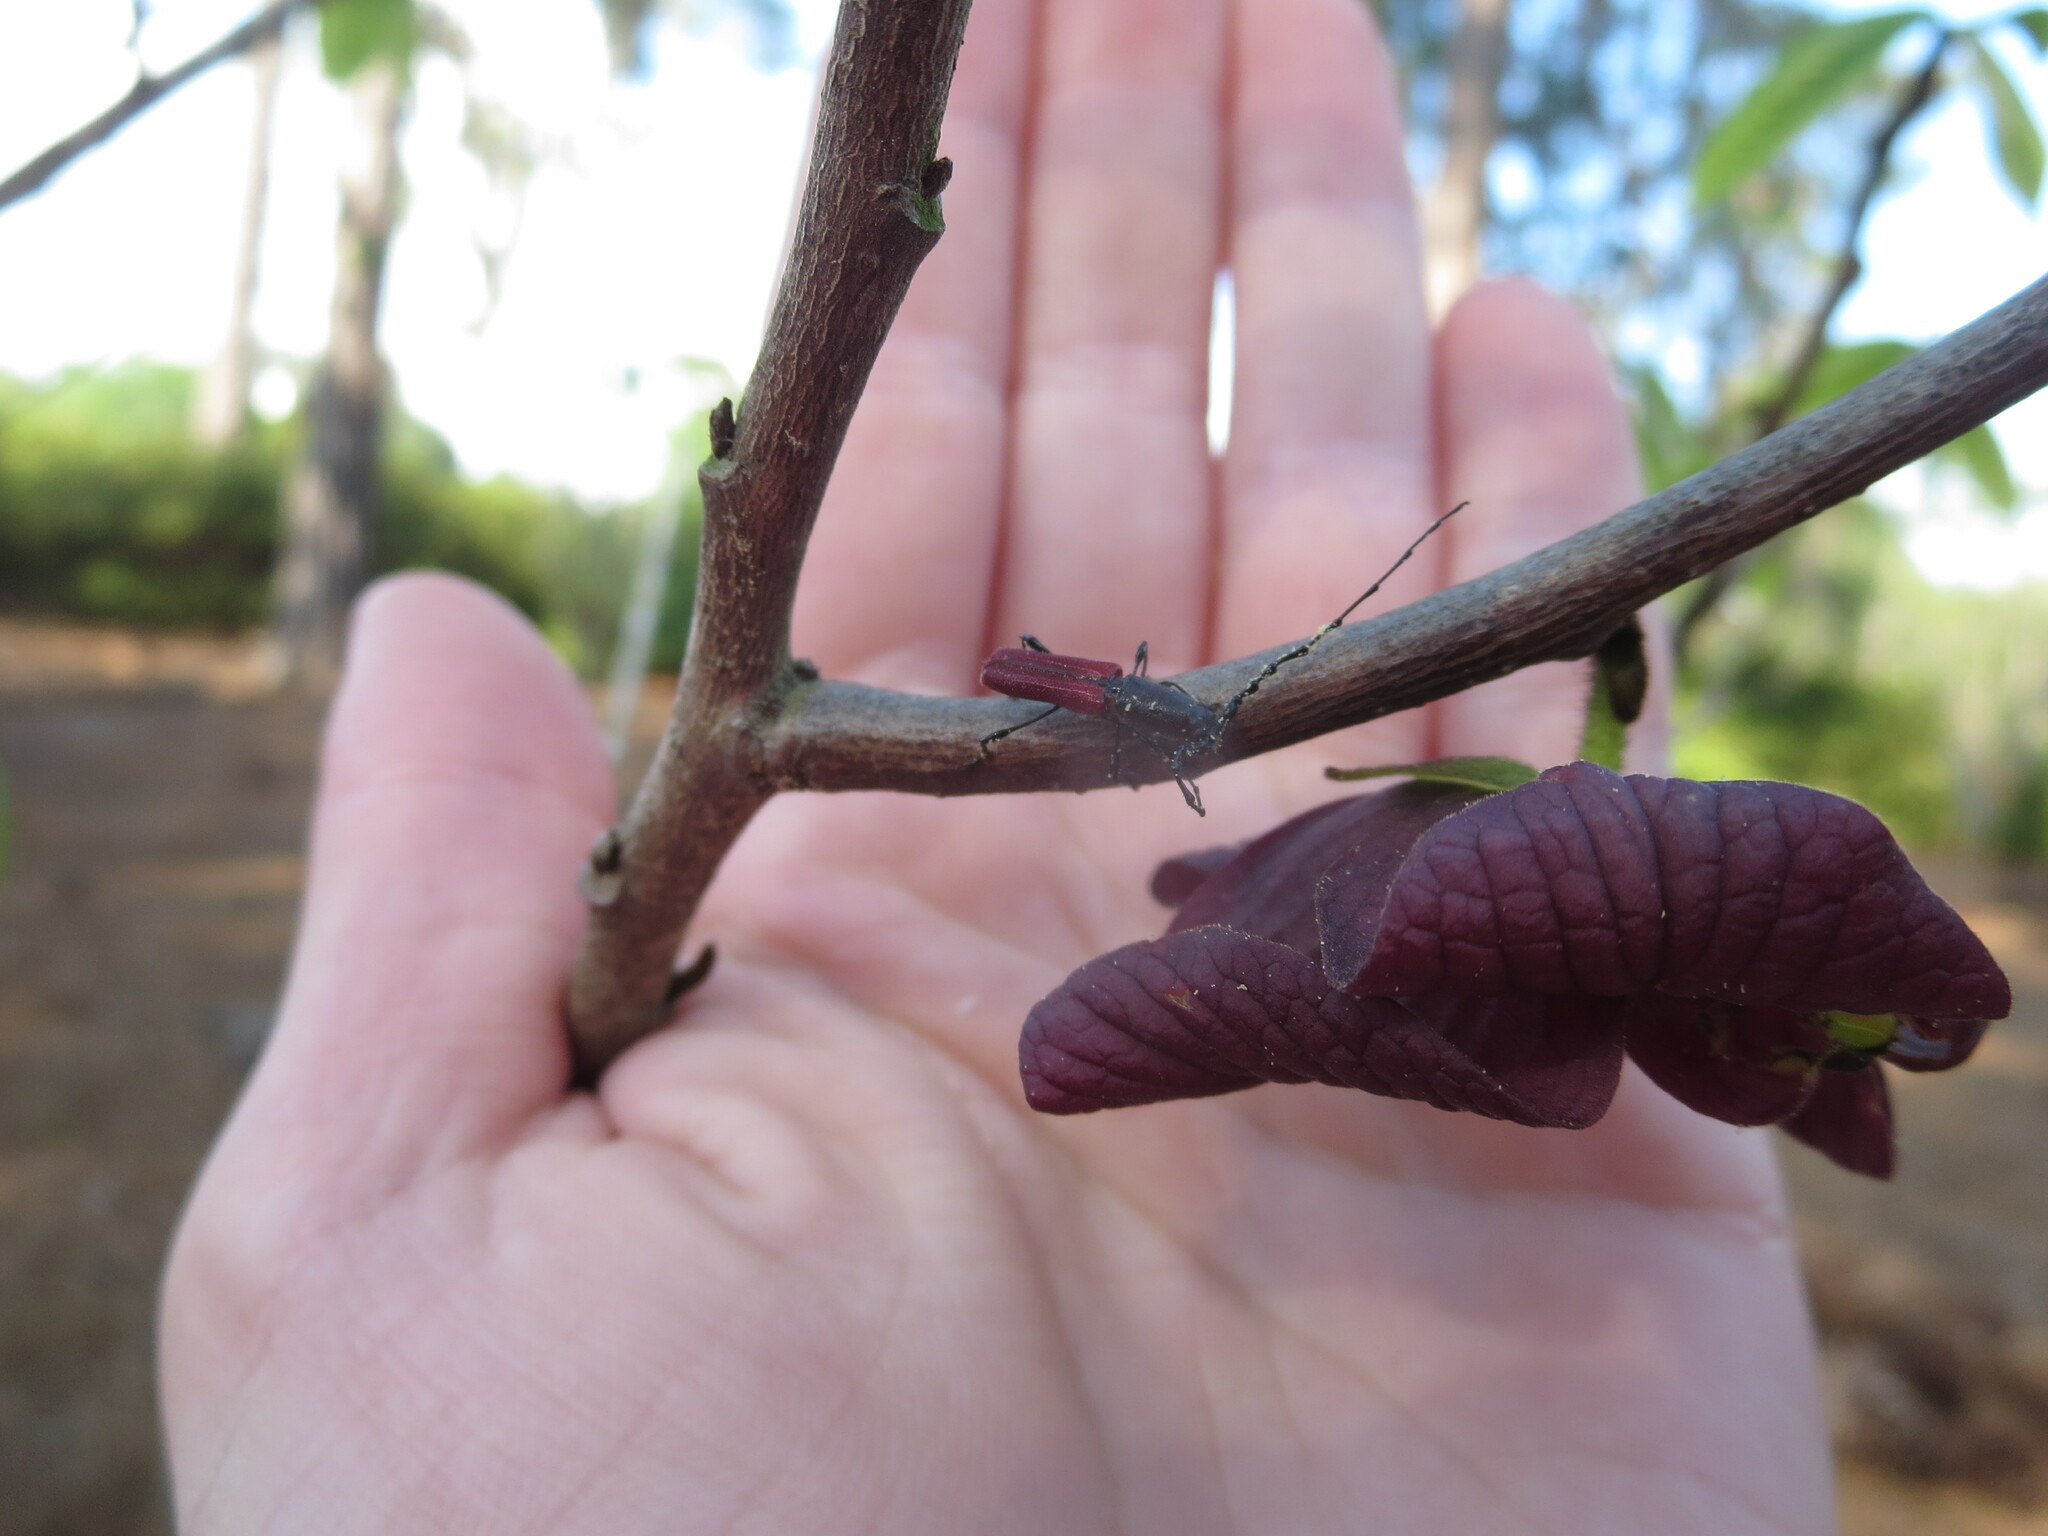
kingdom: Animalia
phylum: Arthropoda
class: Insecta
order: Coleoptera
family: Cerambycidae
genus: Ancylocera
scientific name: Ancylocera bicolor
